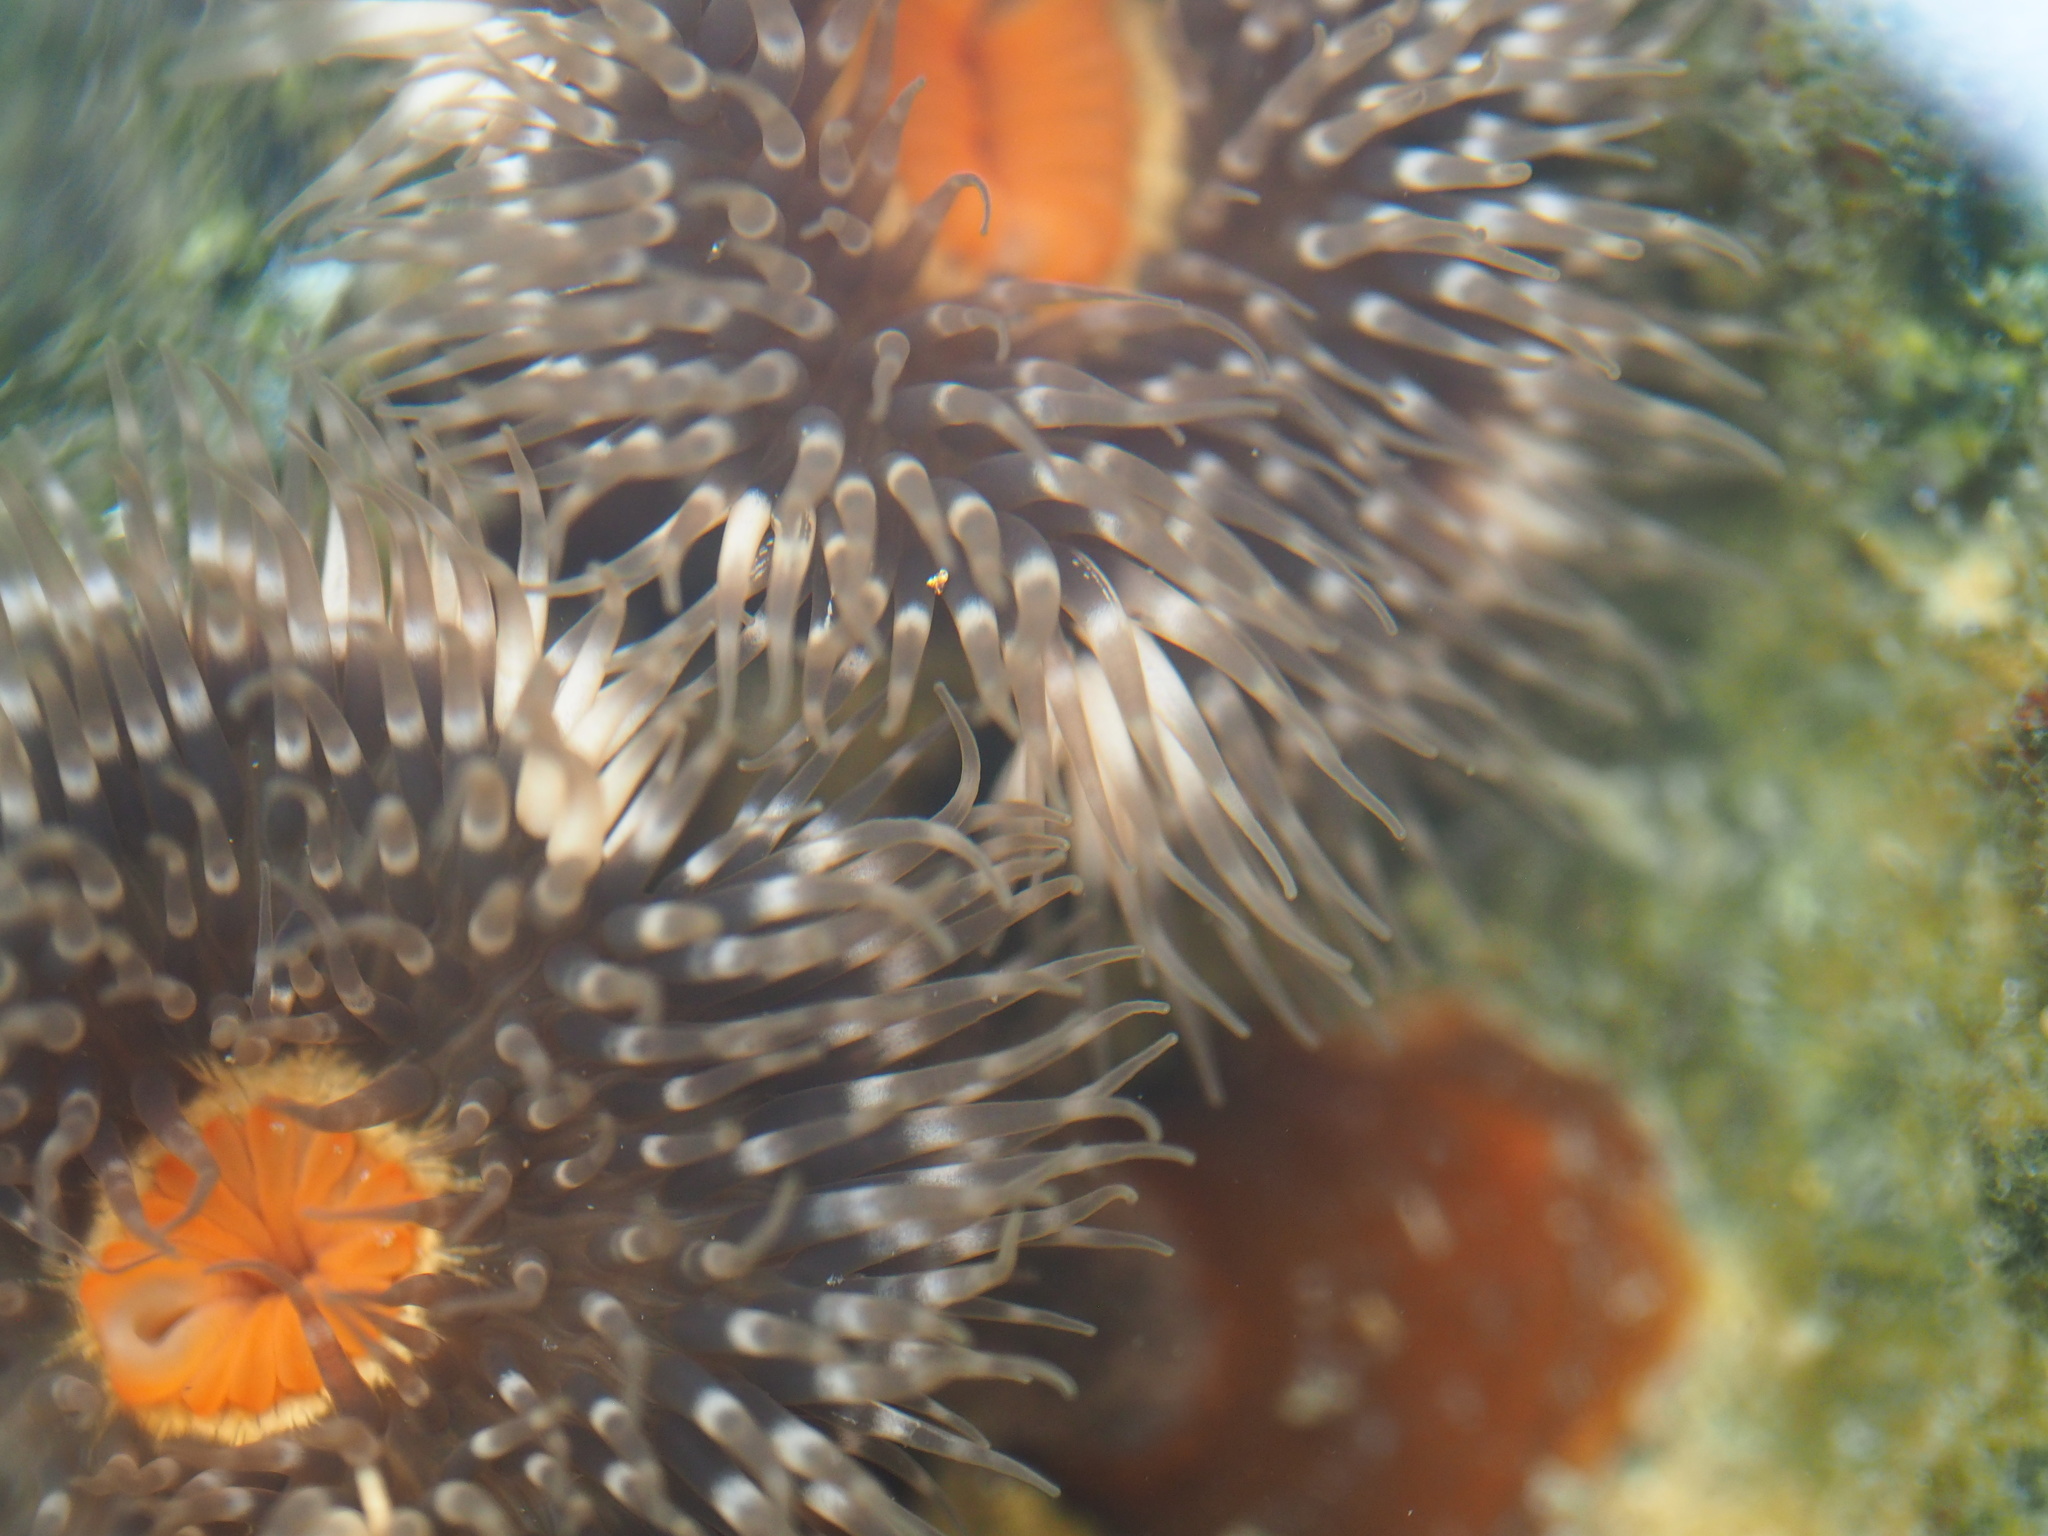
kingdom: Animalia
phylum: Cnidaria
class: Anthozoa
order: Actiniaria
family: Metridiidae
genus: Metridium
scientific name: Metridium senile
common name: Clonal plumose anemone
